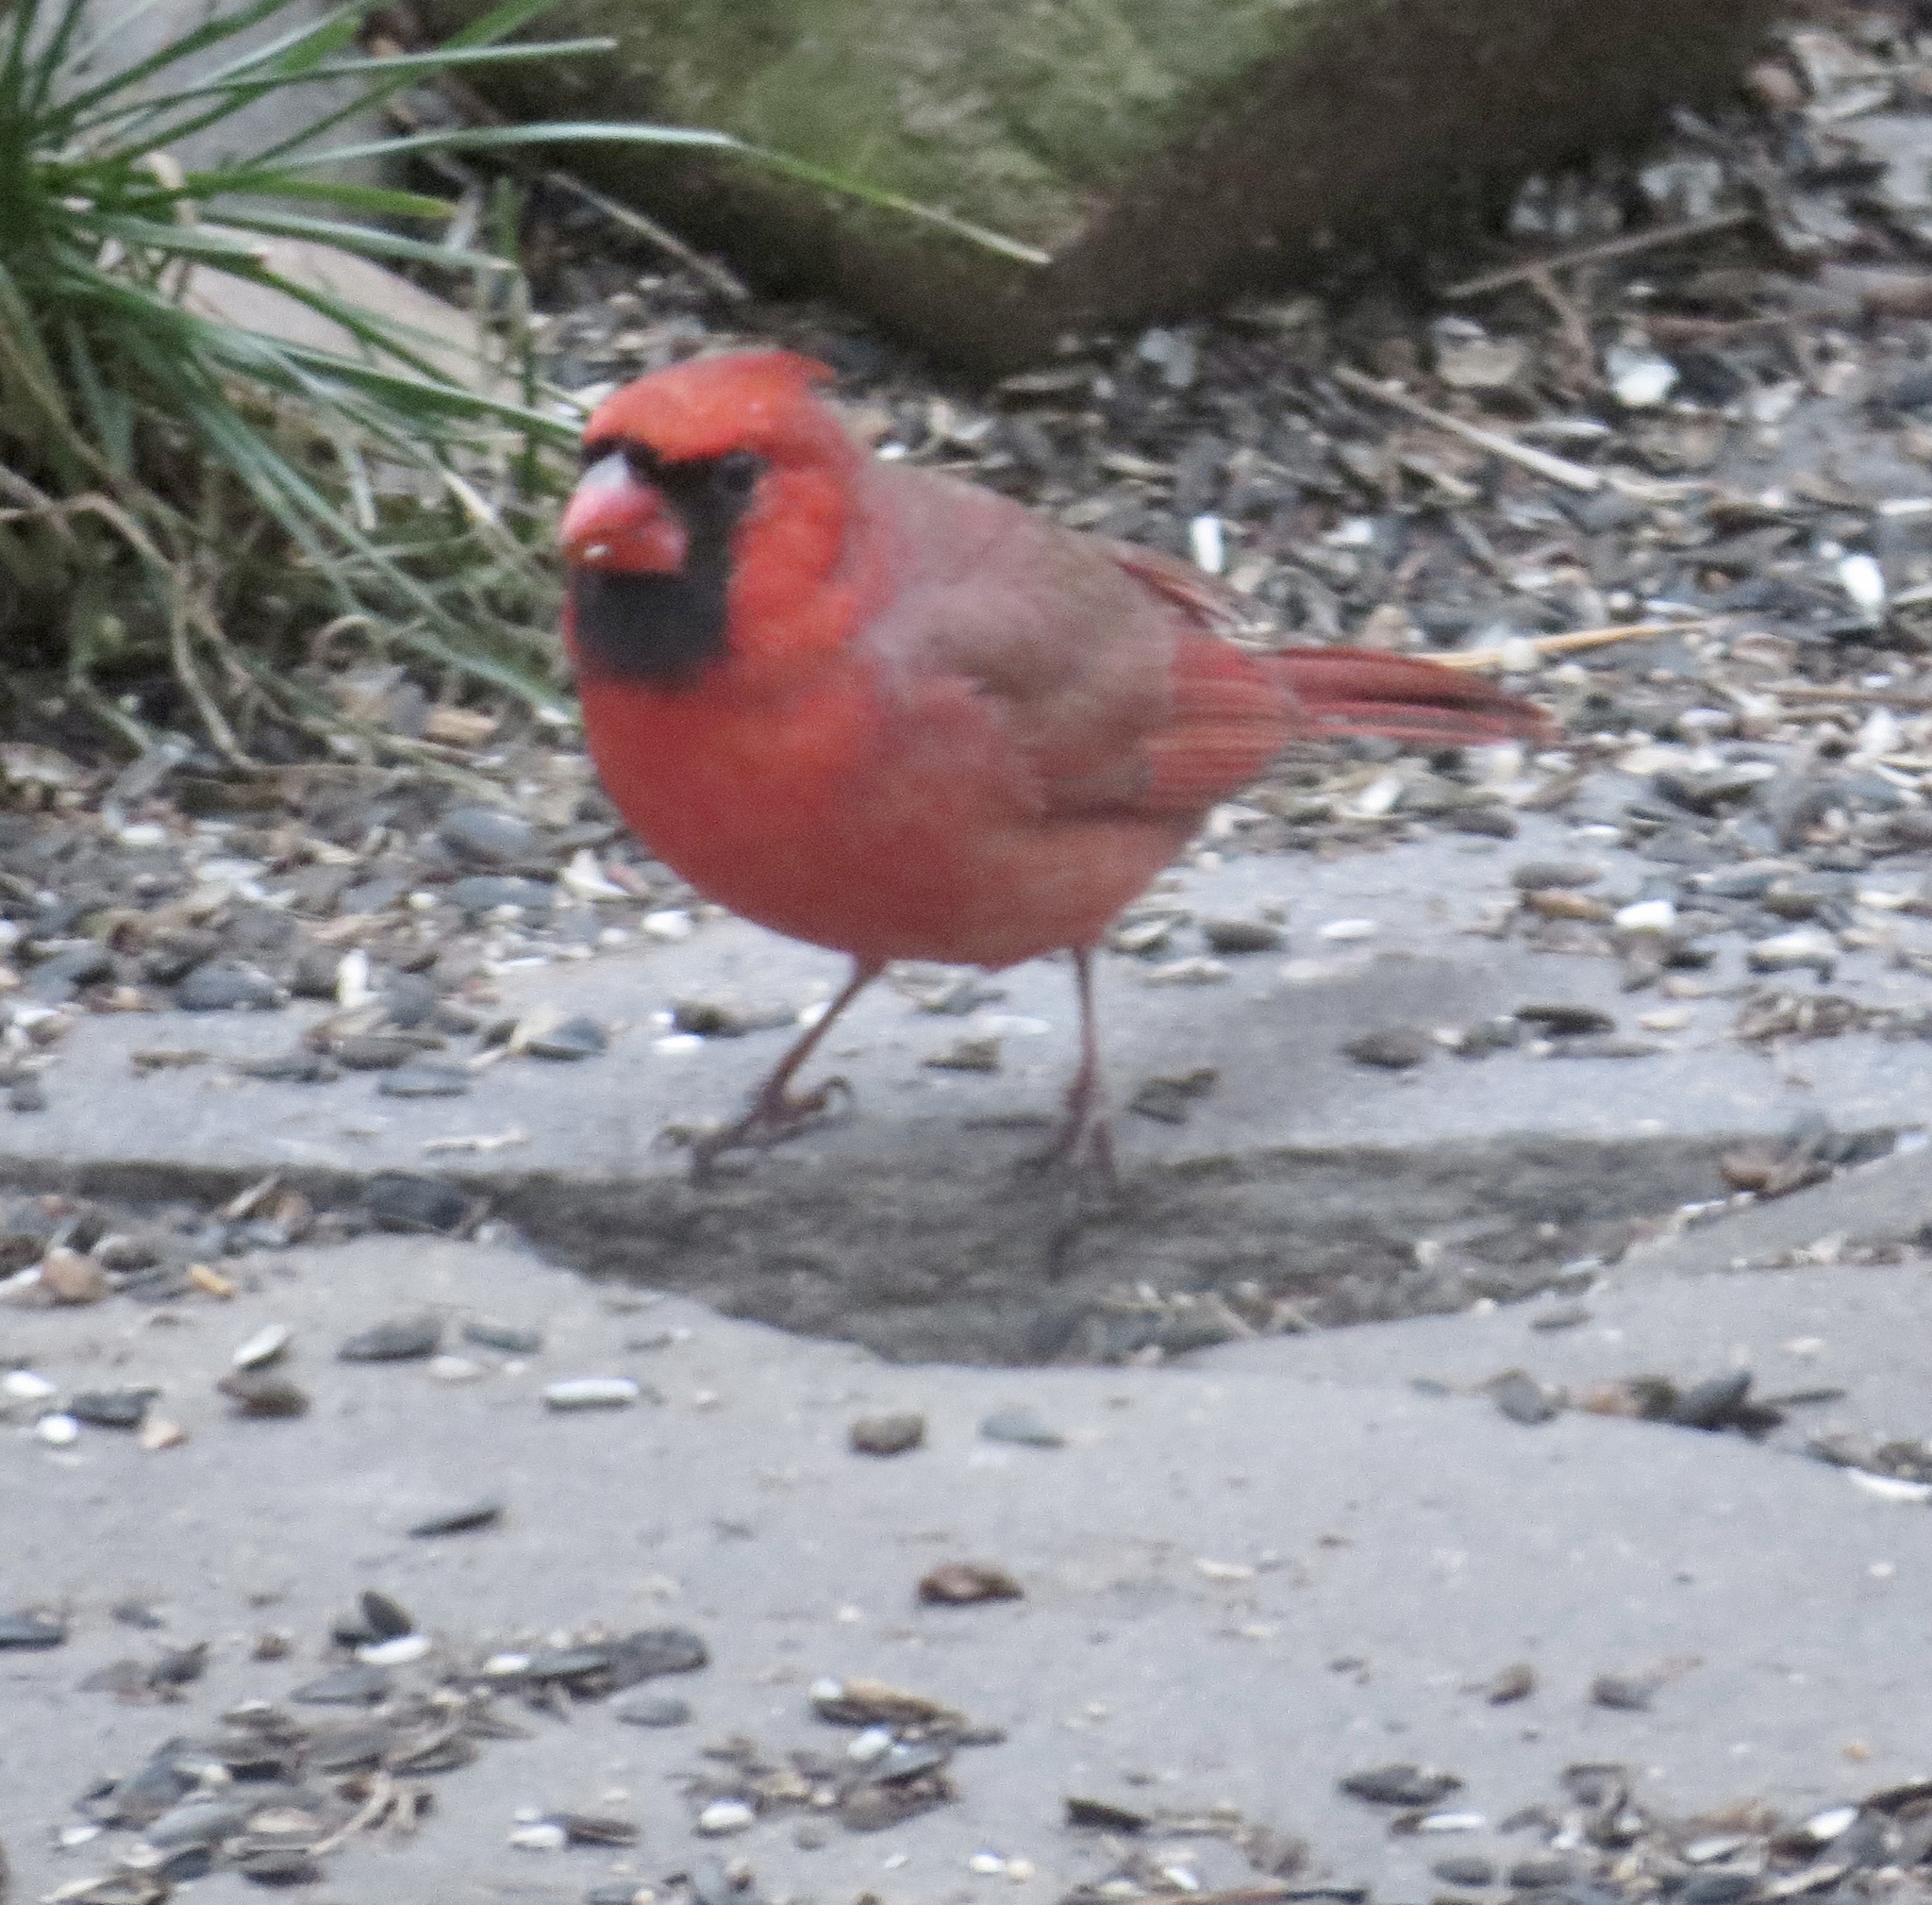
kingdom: Animalia
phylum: Chordata
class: Aves
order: Passeriformes
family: Cardinalidae
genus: Cardinalis
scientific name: Cardinalis cardinalis
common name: Northern cardinal
